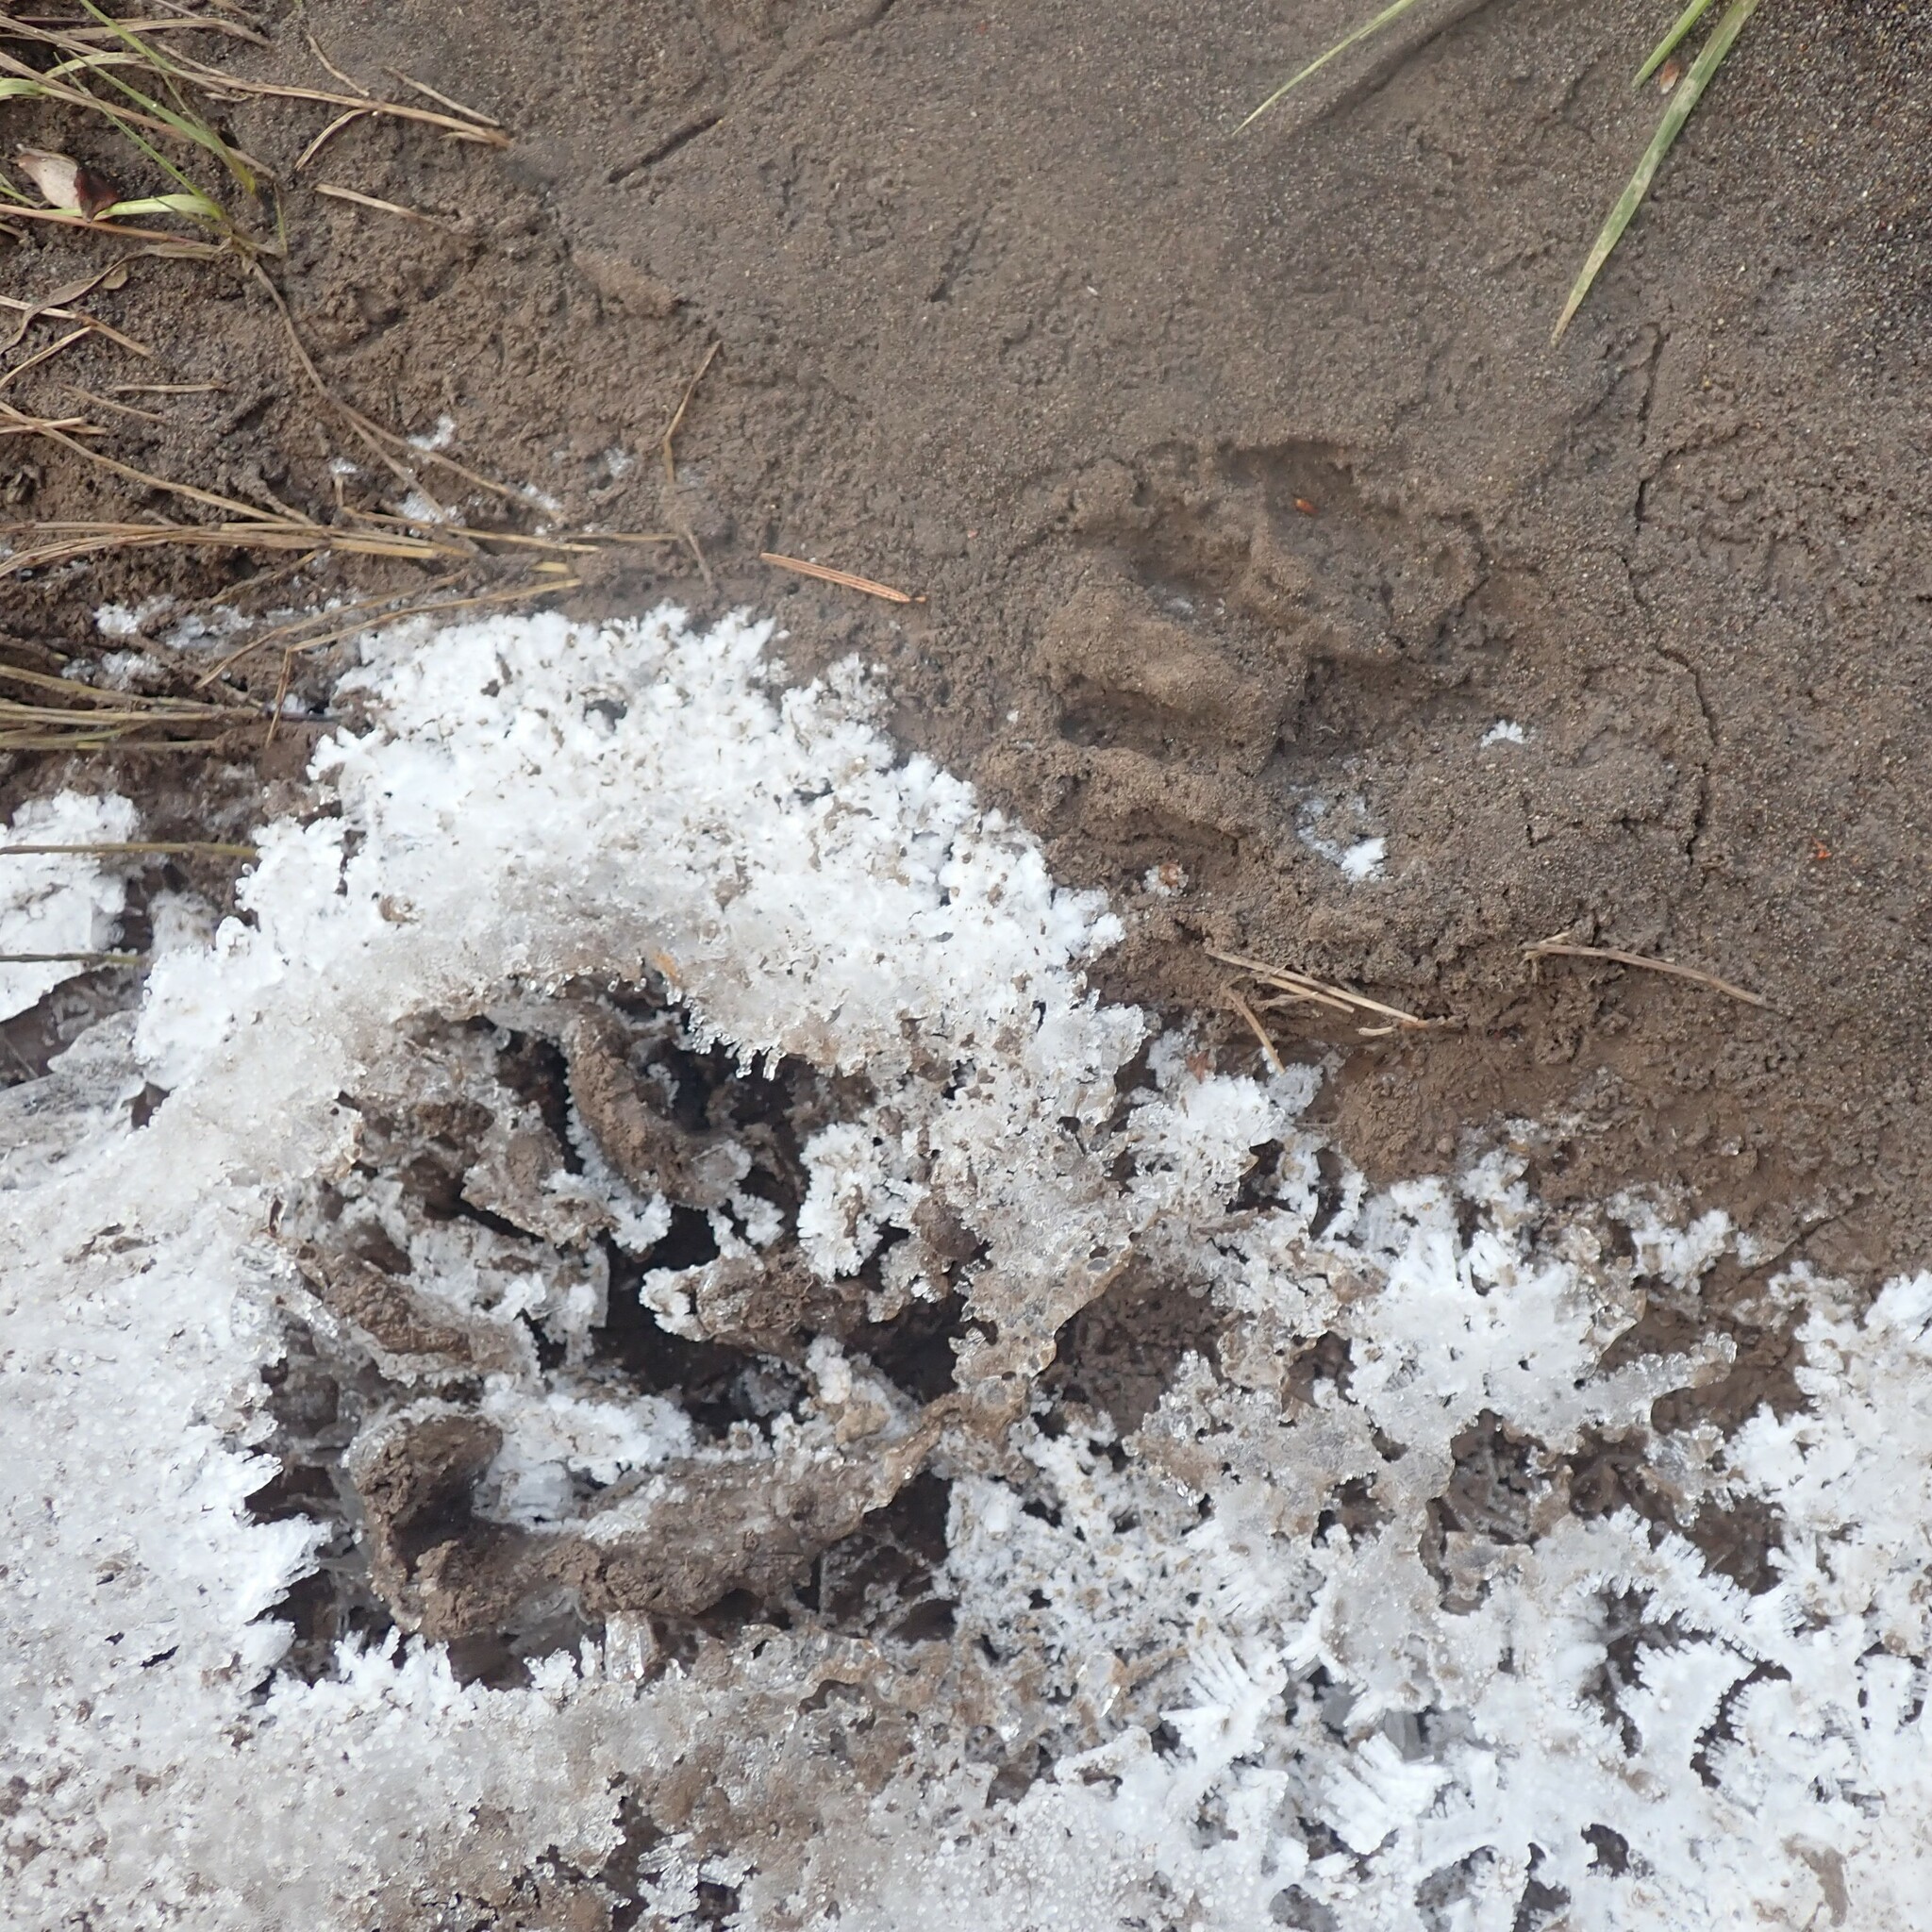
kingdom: Animalia
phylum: Chordata
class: Mammalia
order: Carnivora
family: Procyonidae
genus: Procyon
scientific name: Procyon lotor
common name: Raccoon
